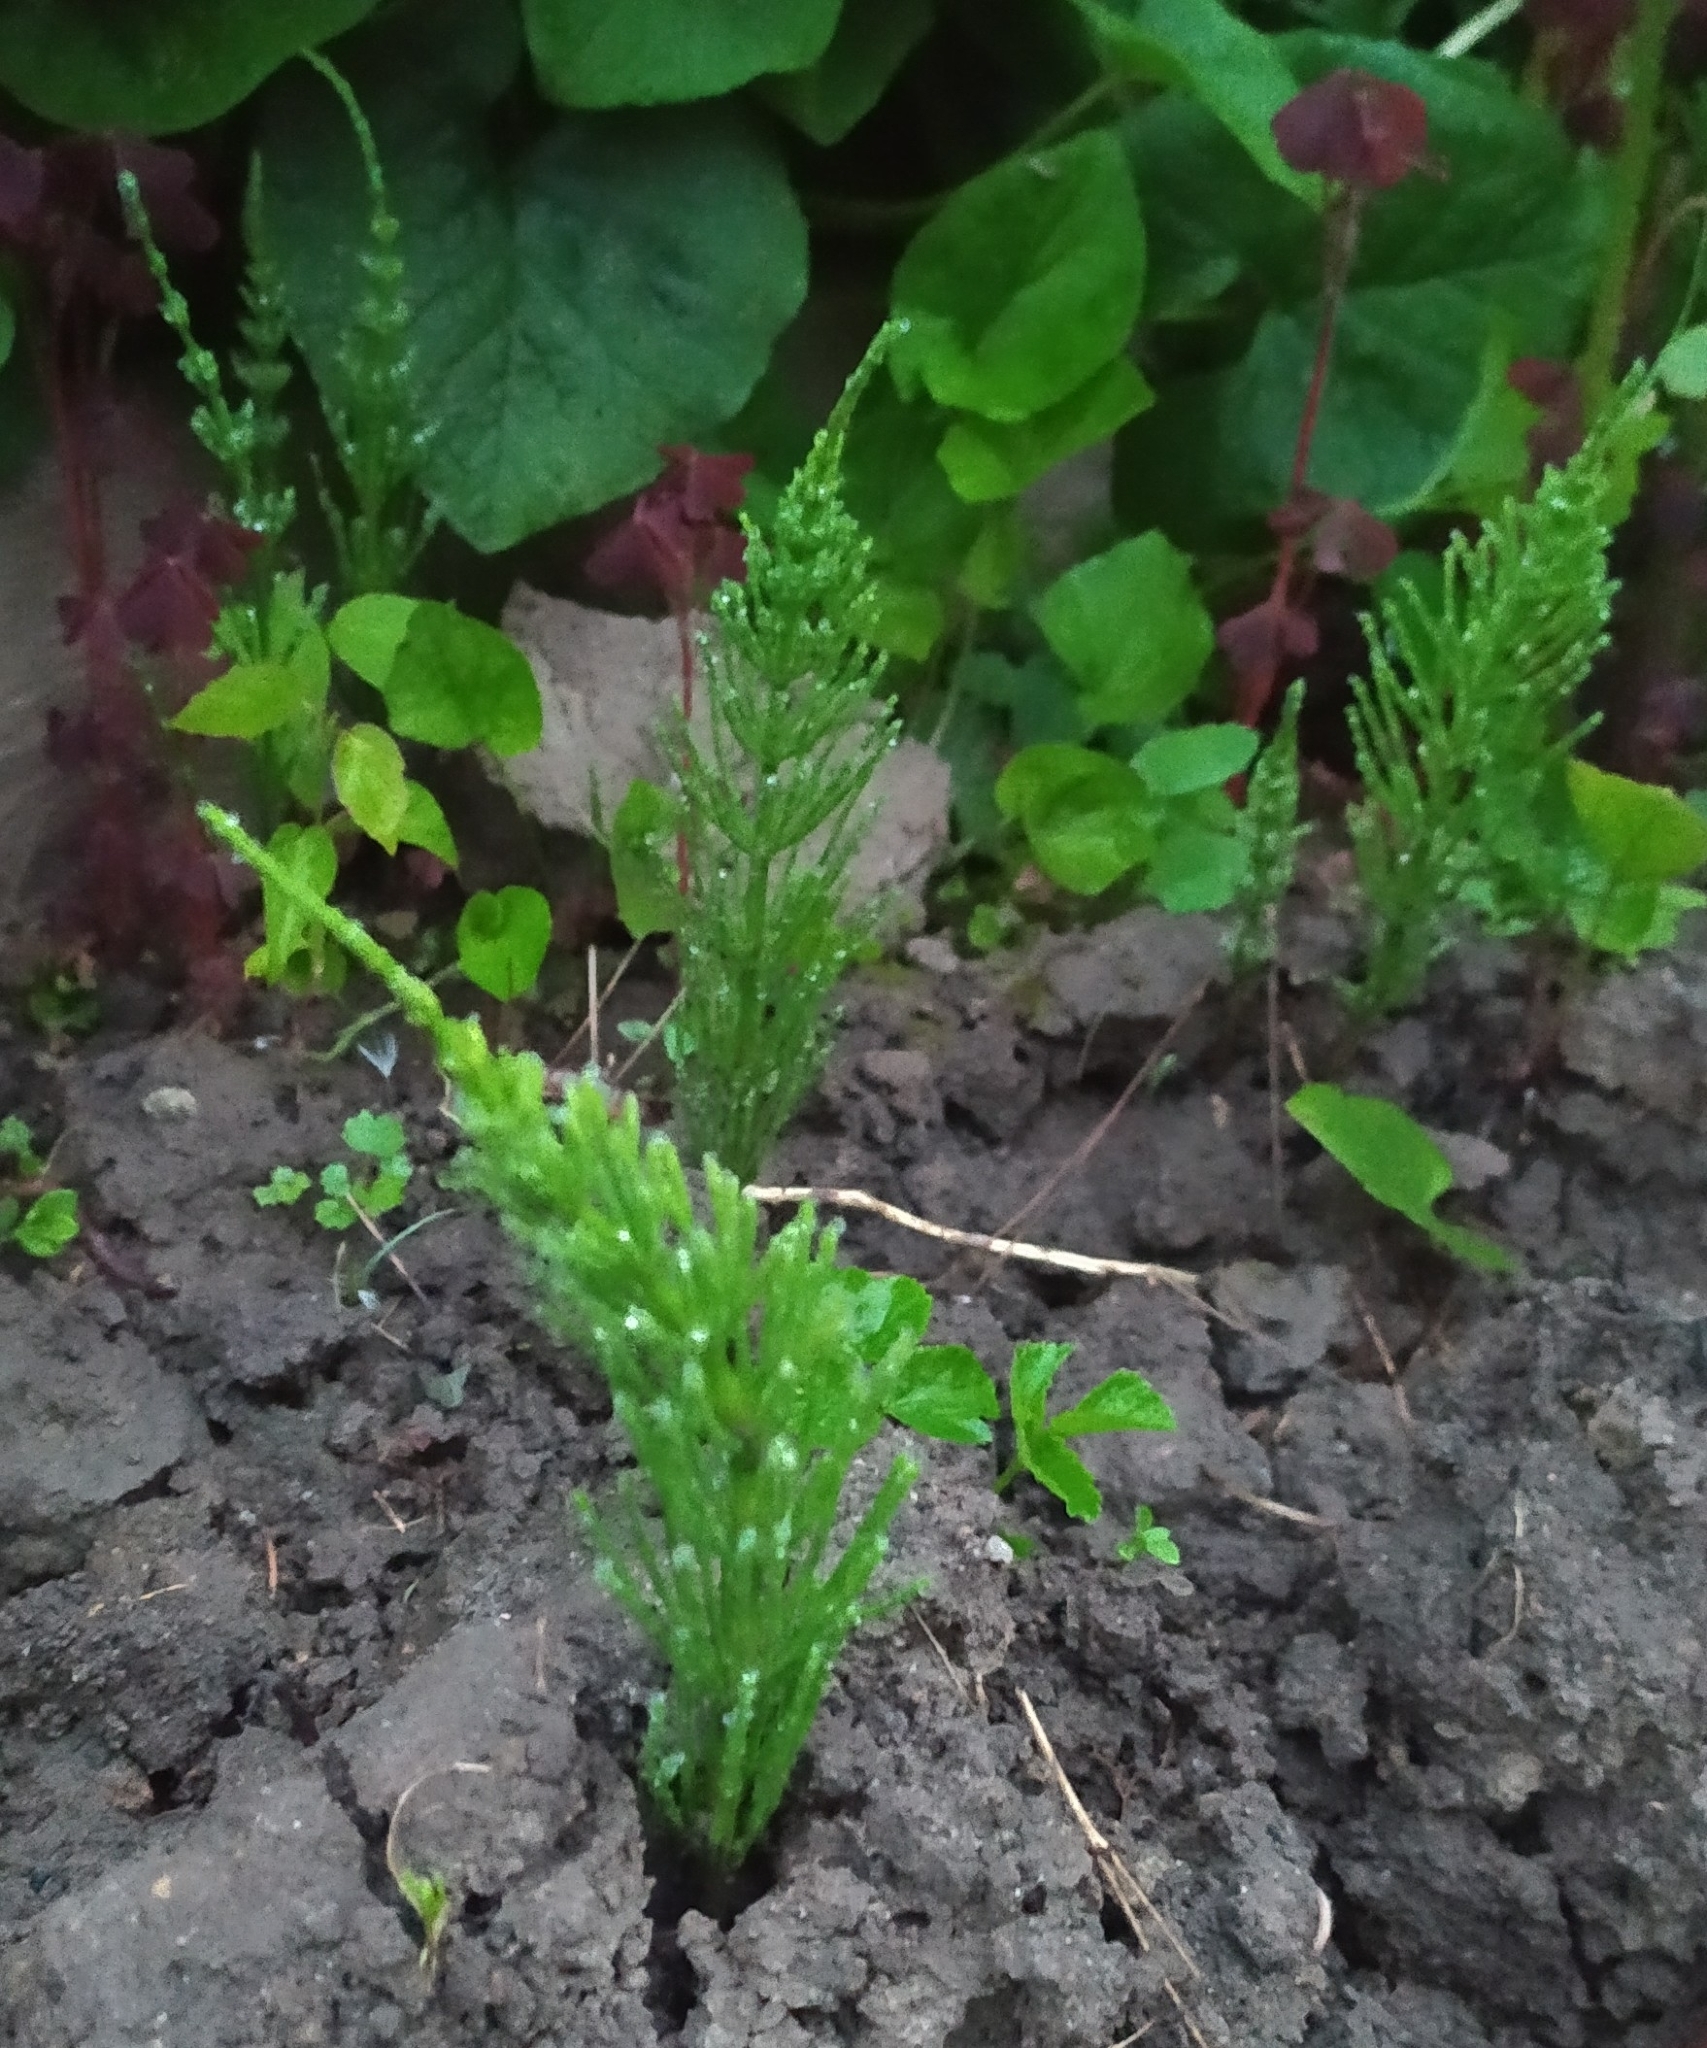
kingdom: Plantae
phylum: Tracheophyta
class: Polypodiopsida
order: Equisetales
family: Equisetaceae
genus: Equisetum
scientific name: Equisetum arvense
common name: Field horsetail
